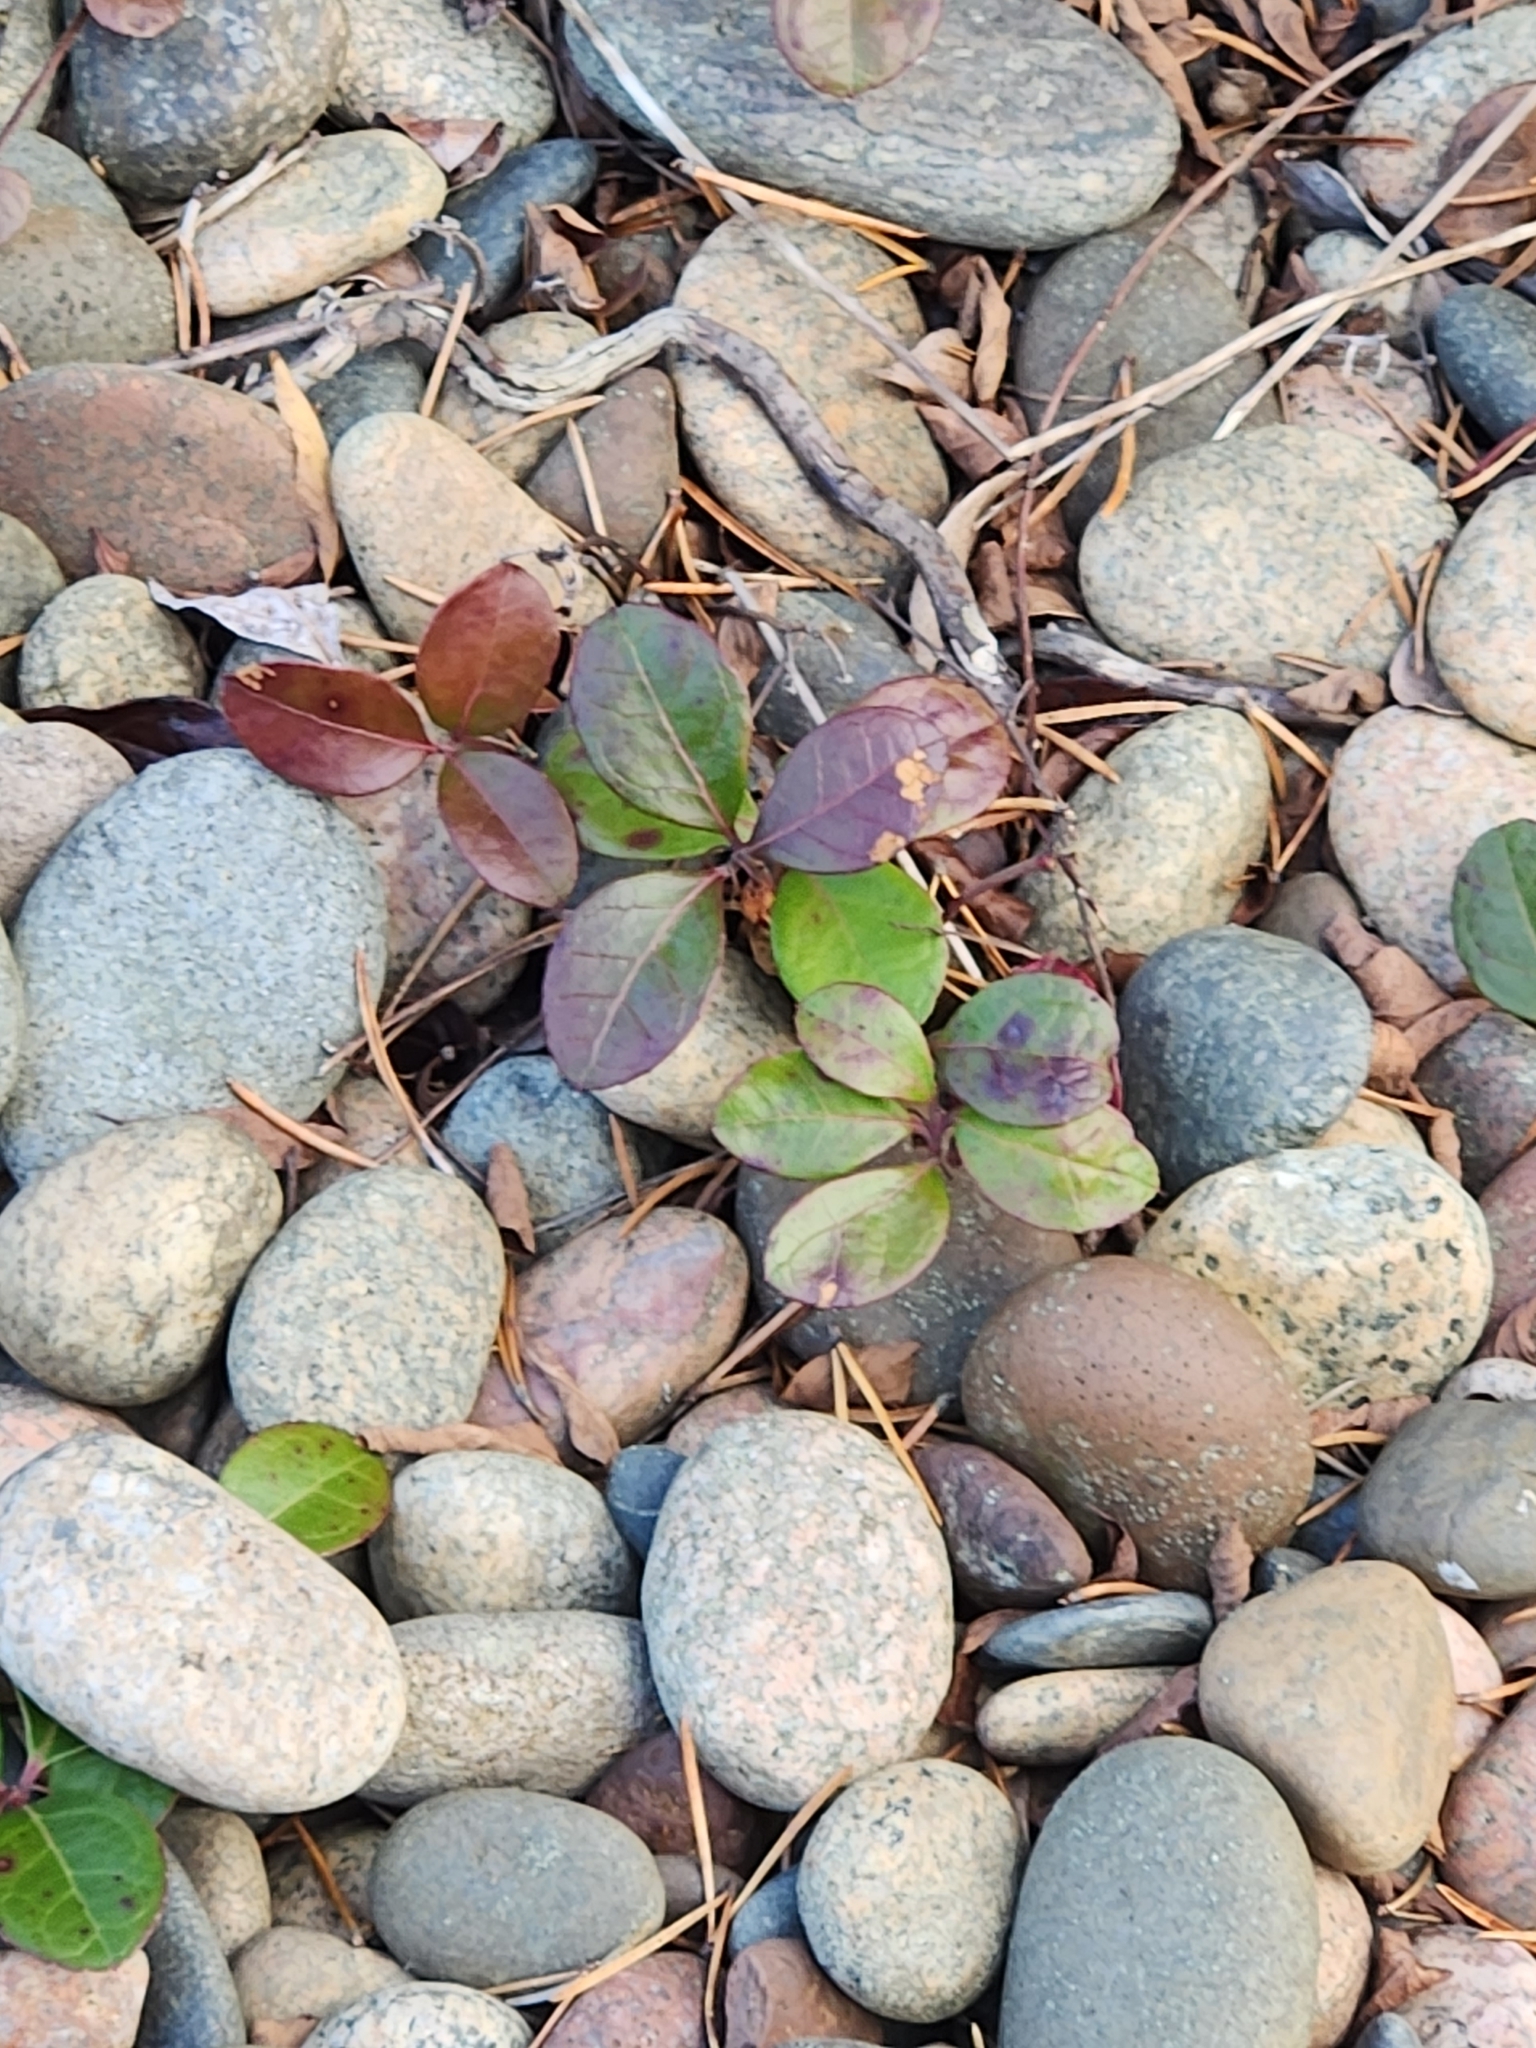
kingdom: Plantae
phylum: Tracheophyta
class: Magnoliopsida
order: Ericales
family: Ericaceae
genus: Gaultheria
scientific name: Gaultheria procumbens
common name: Checkerberry
